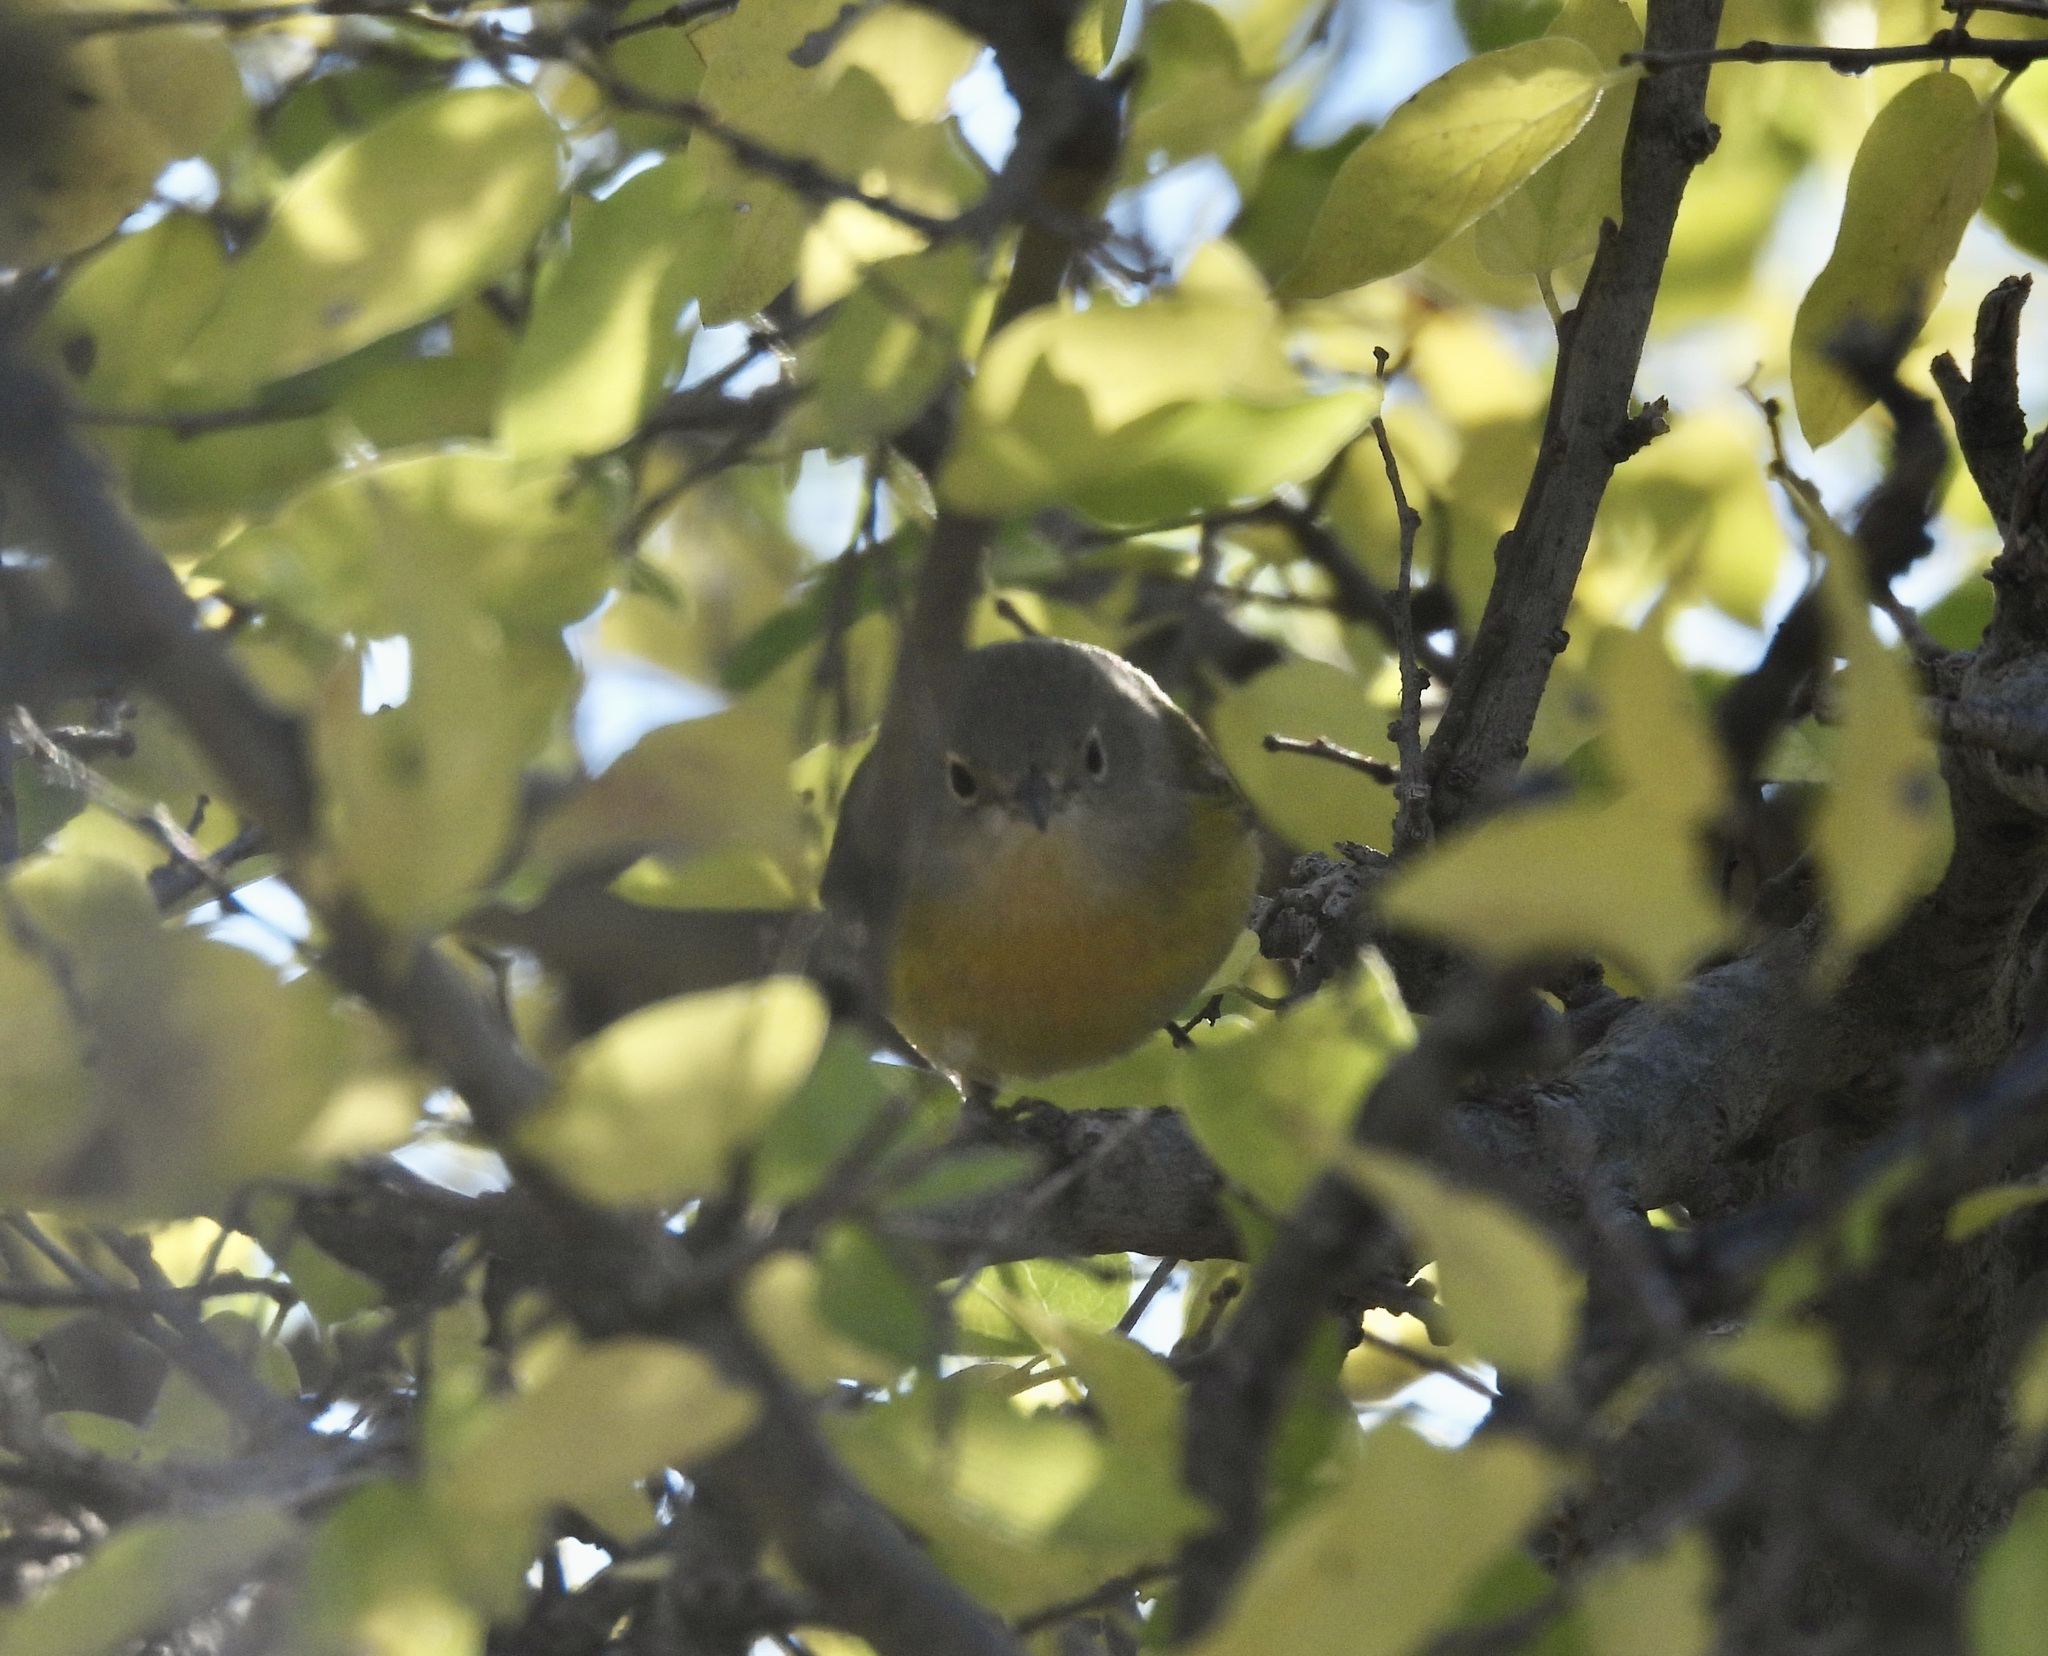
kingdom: Animalia
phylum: Chordata
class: Aves
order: Passeriformes
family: Parulidae
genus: Leiothlypis
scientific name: Leiothlypis ruficapilla
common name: Nashville warbler
